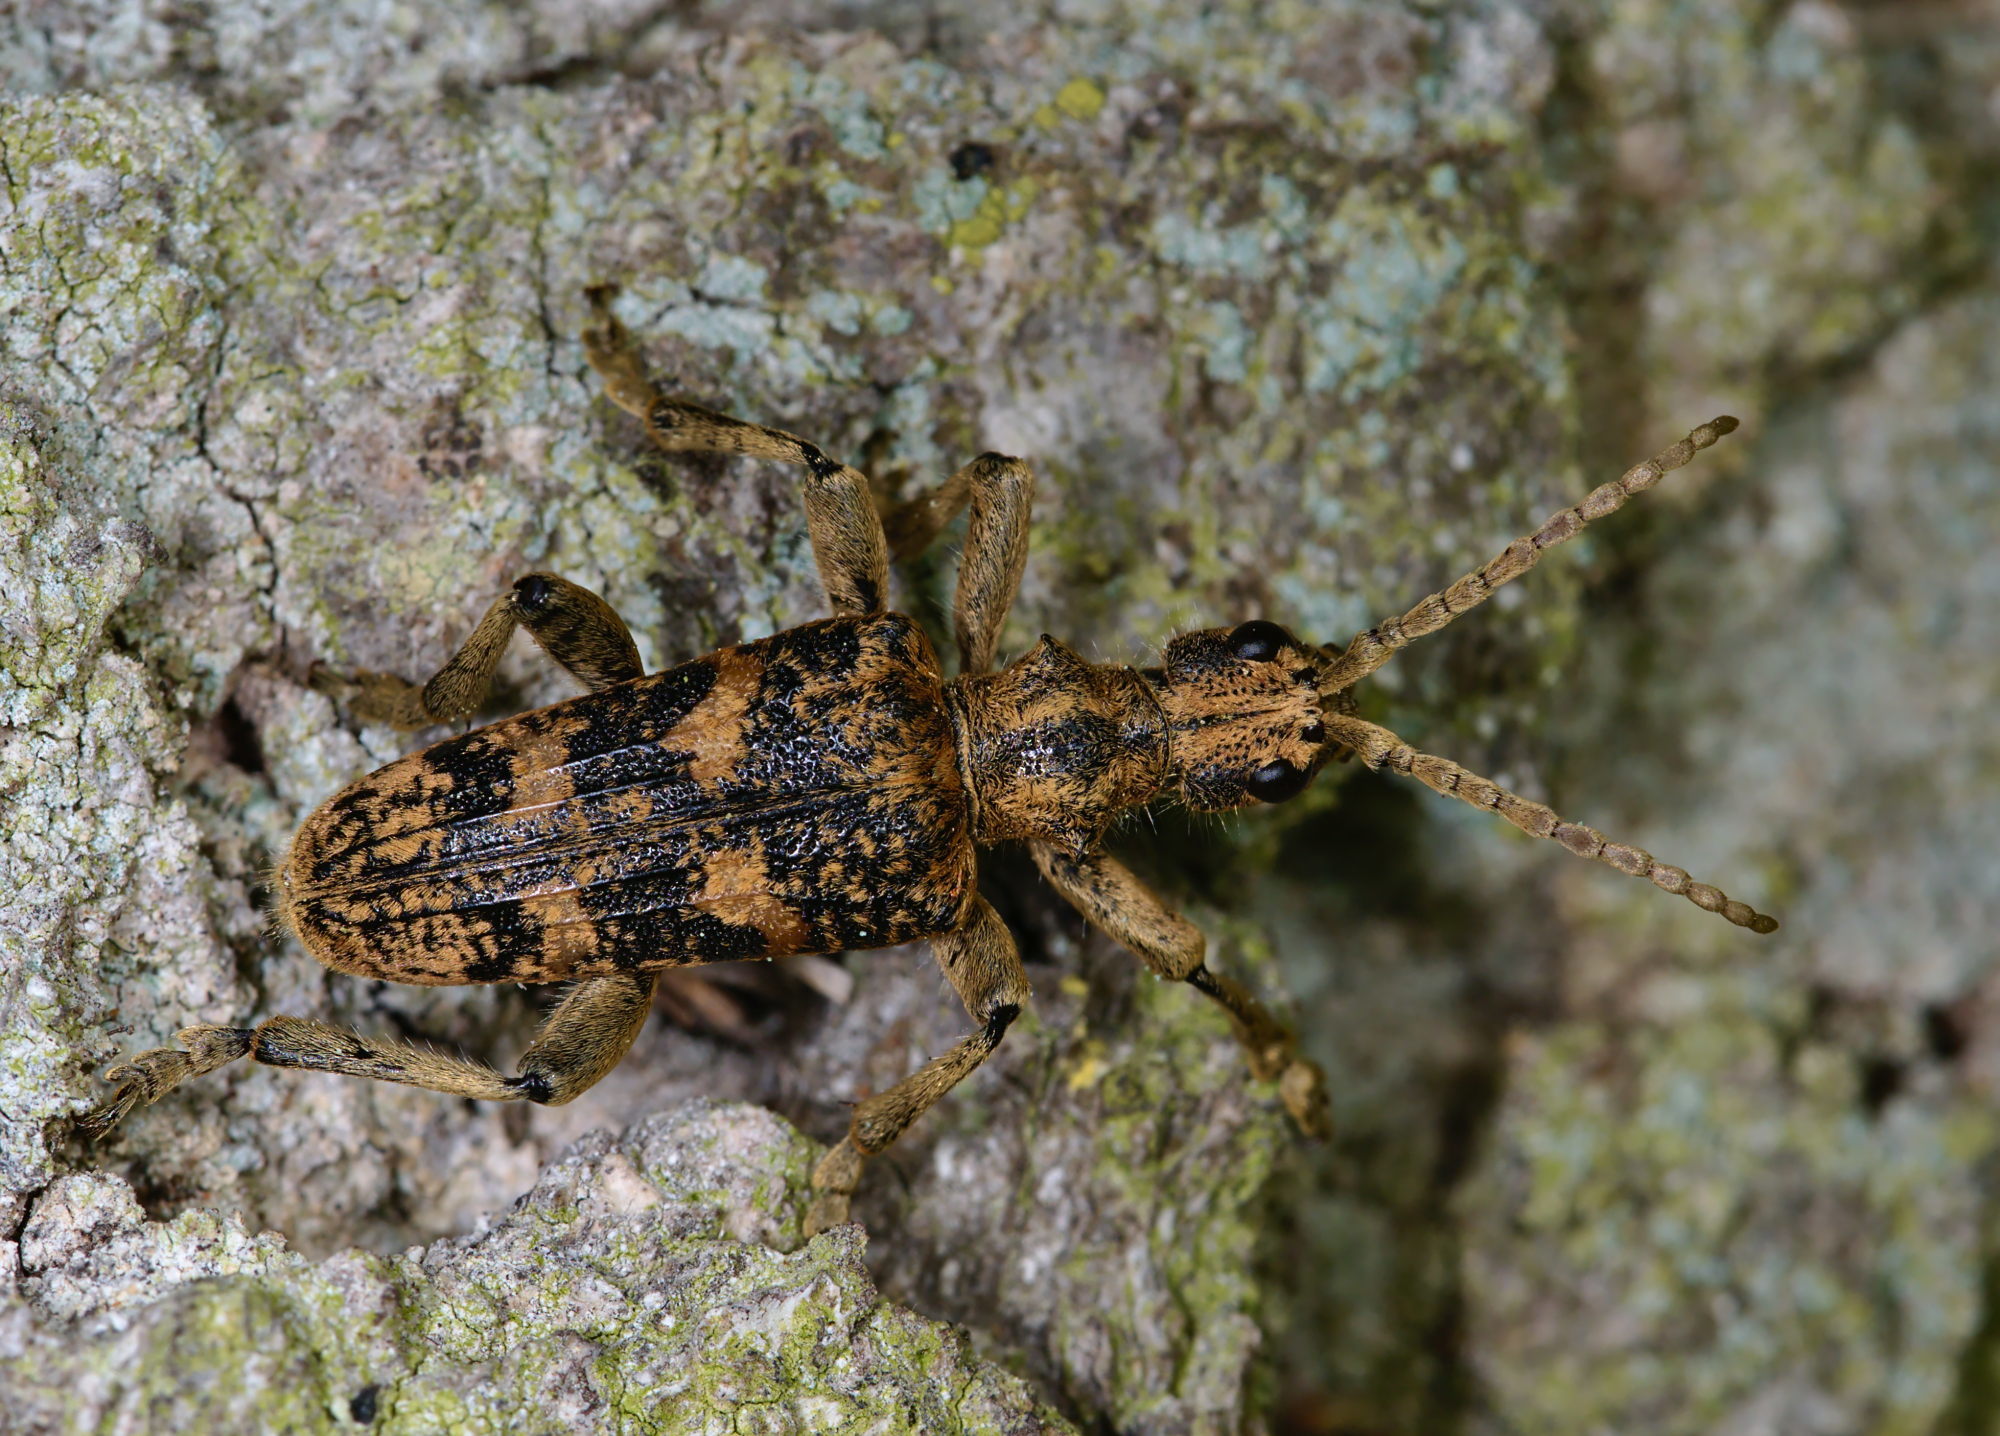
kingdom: Animalia
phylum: Arthropoda
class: Insecta
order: Coleoptera
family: Cerambycidae
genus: Rhagium
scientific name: Rhagium sycophanta
